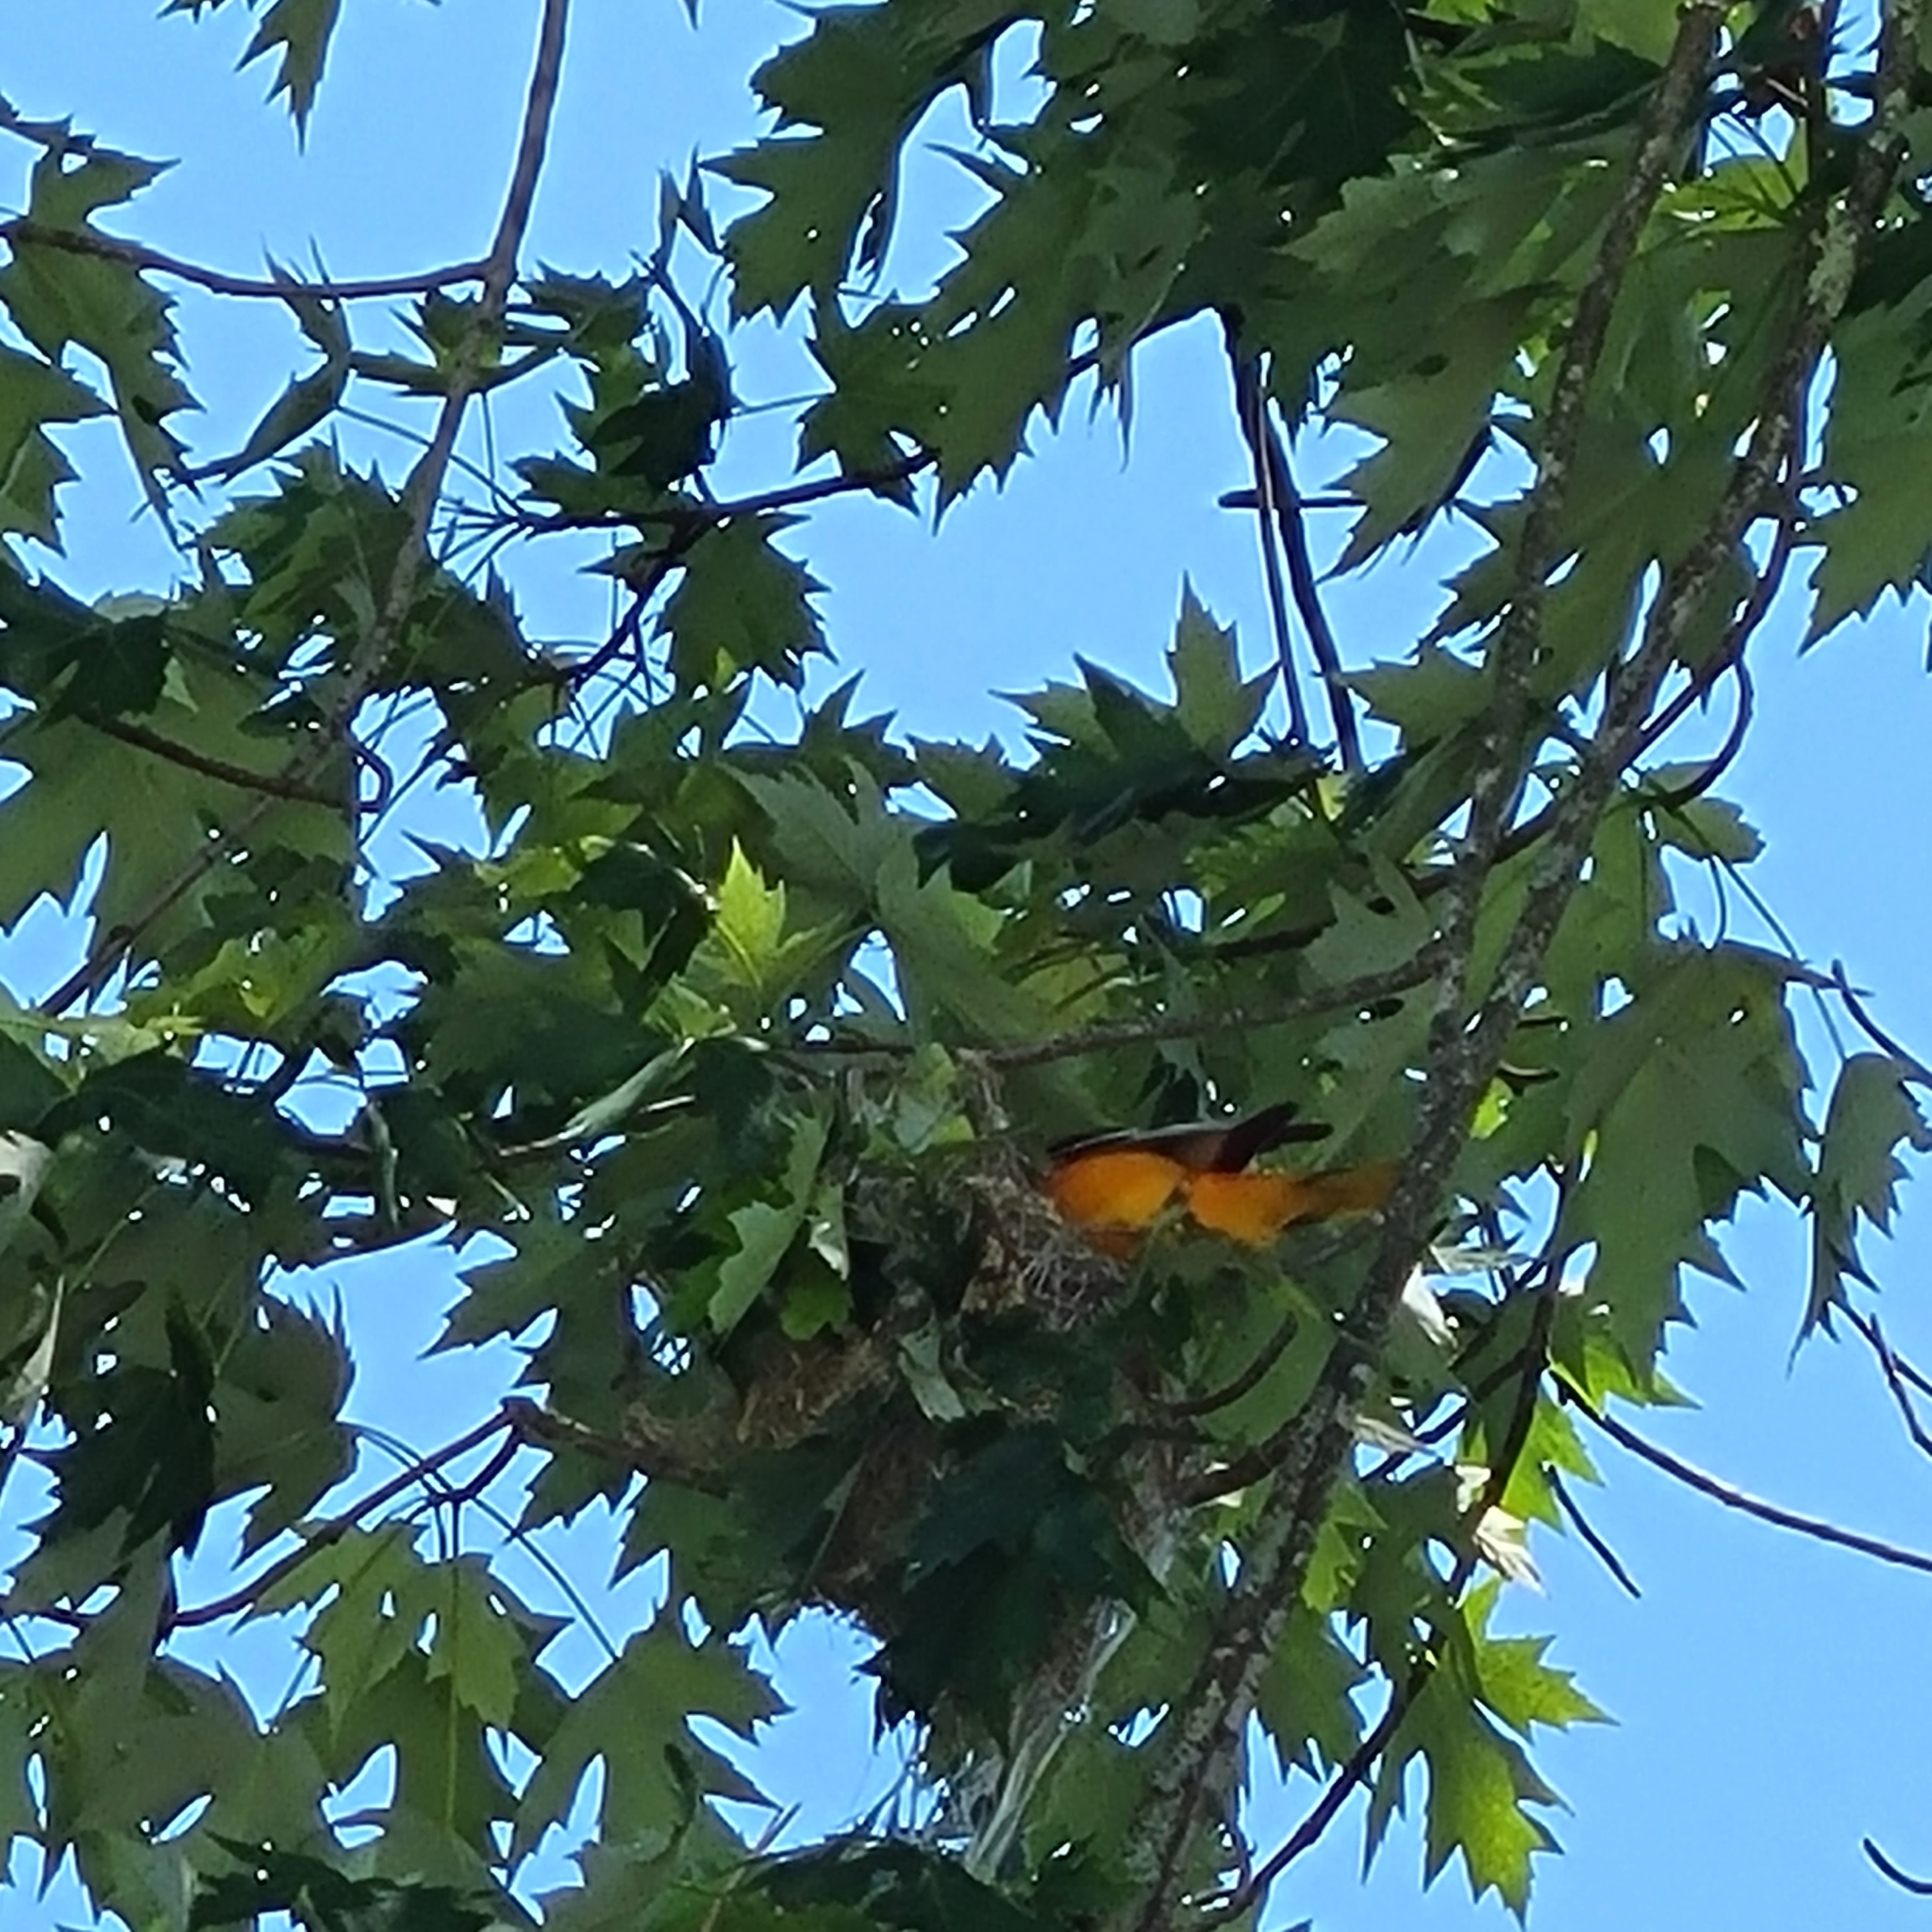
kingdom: Animalia
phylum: Chordata
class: Aves
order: Passeriformes
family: Icteridae
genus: Icterus
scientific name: Icterus galbula
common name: Baltimore oriole
